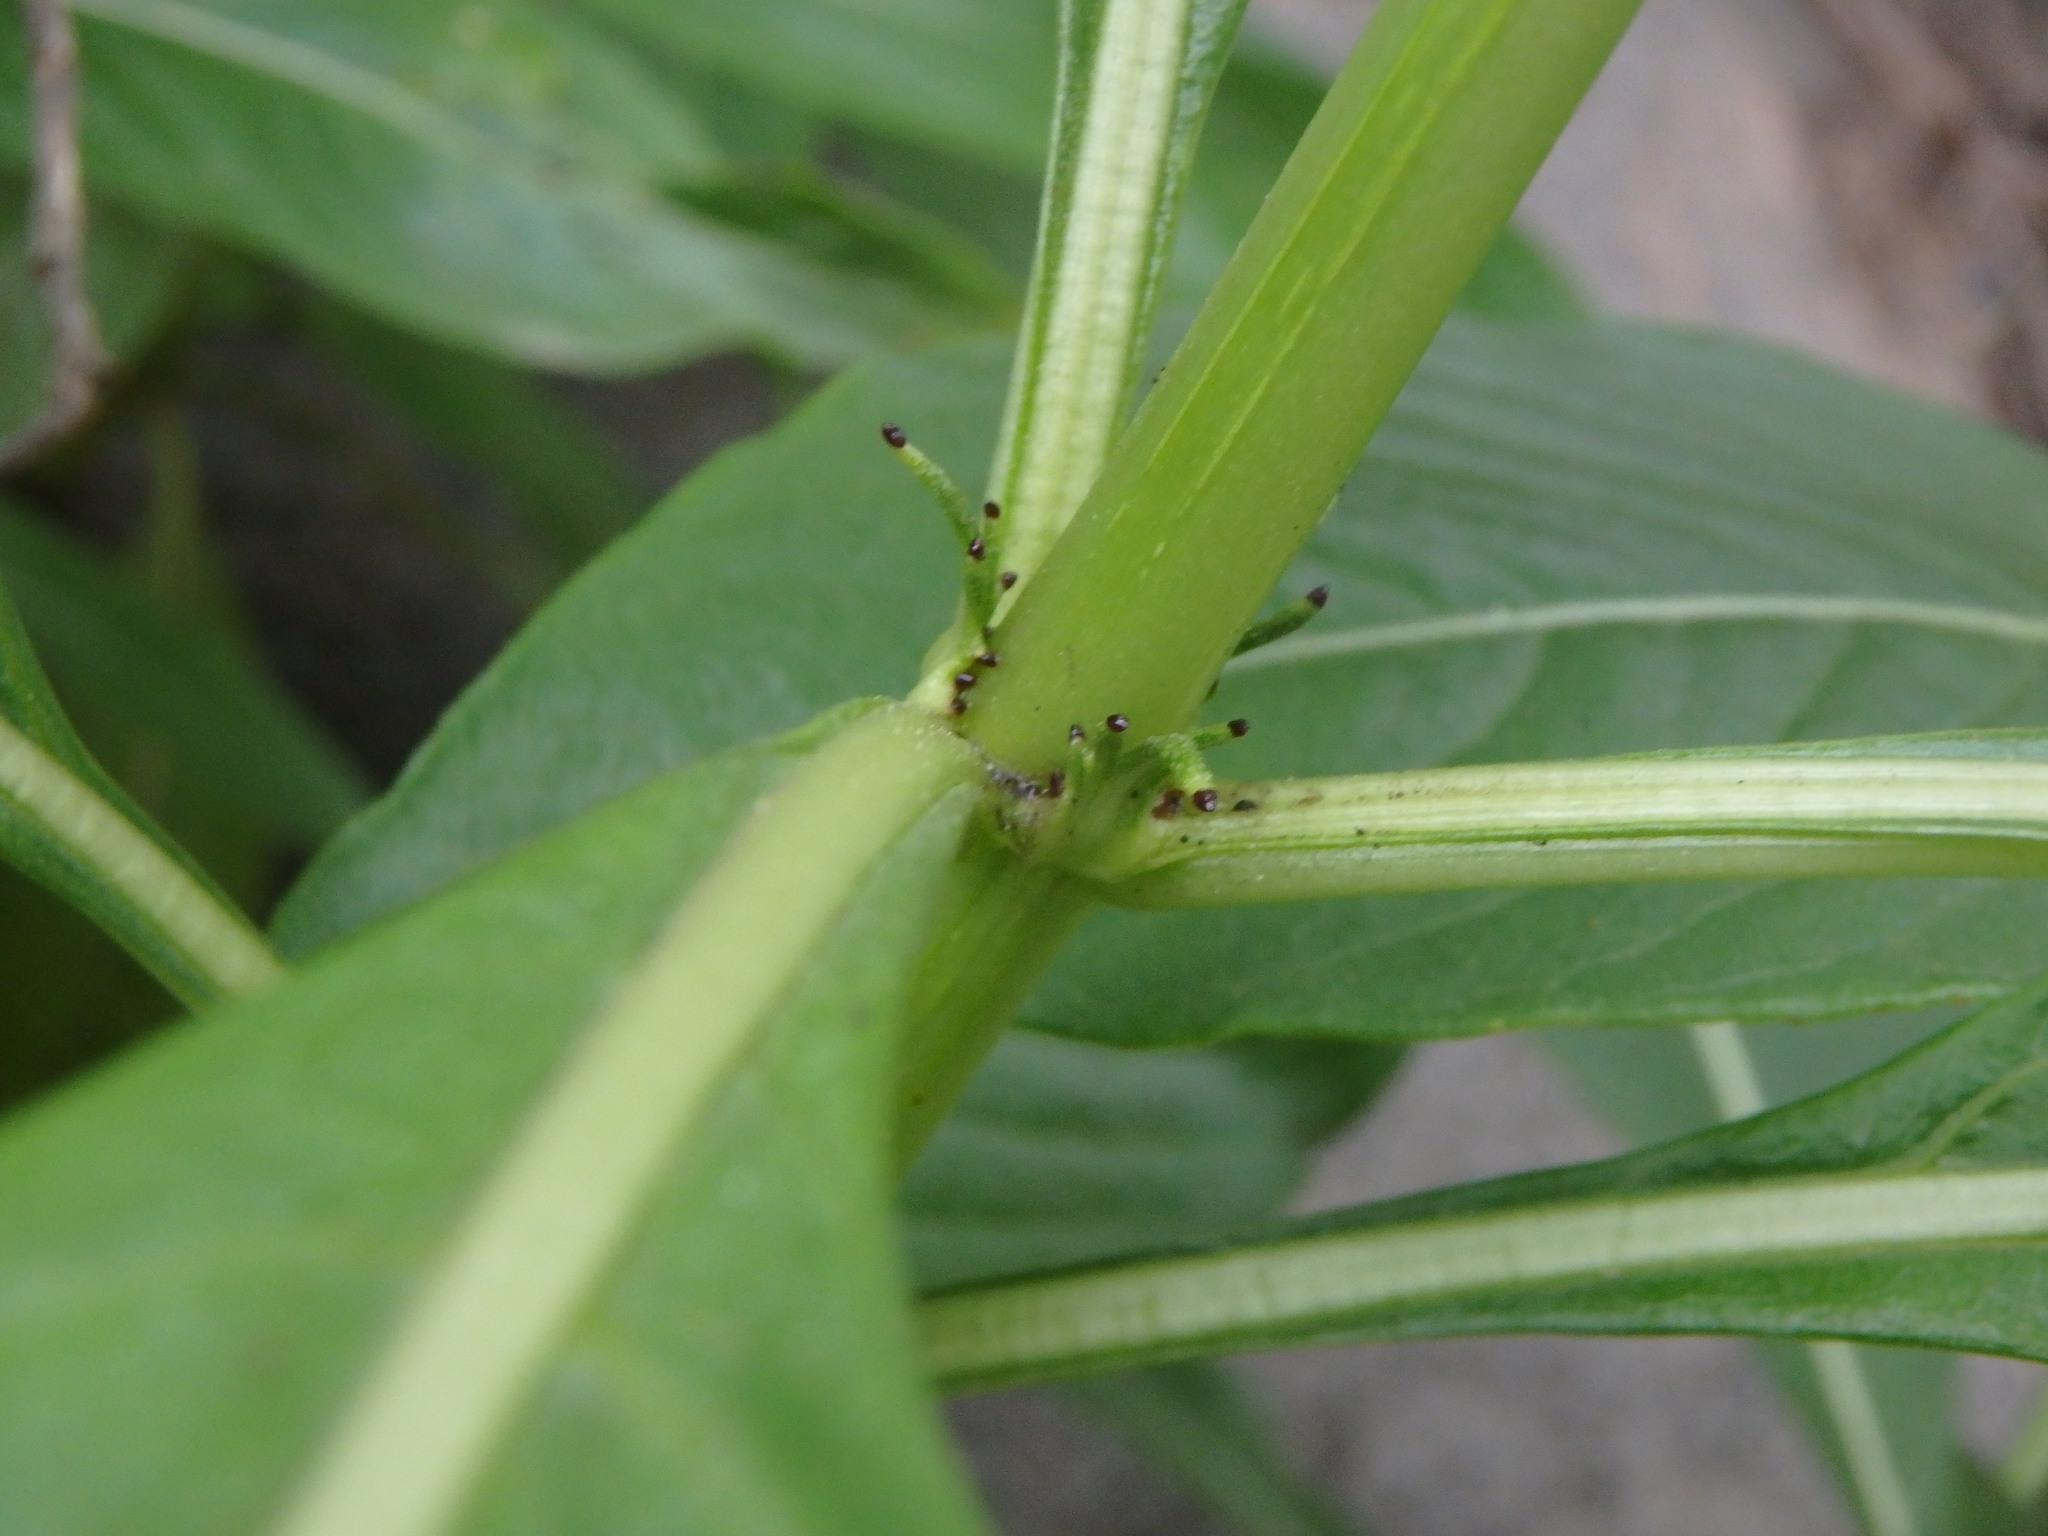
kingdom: Plantae
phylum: Tracheophyta
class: Magnoliopsida
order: Gentianales
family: Rubiaceae
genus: Phyllis
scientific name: Phyllis nobla
